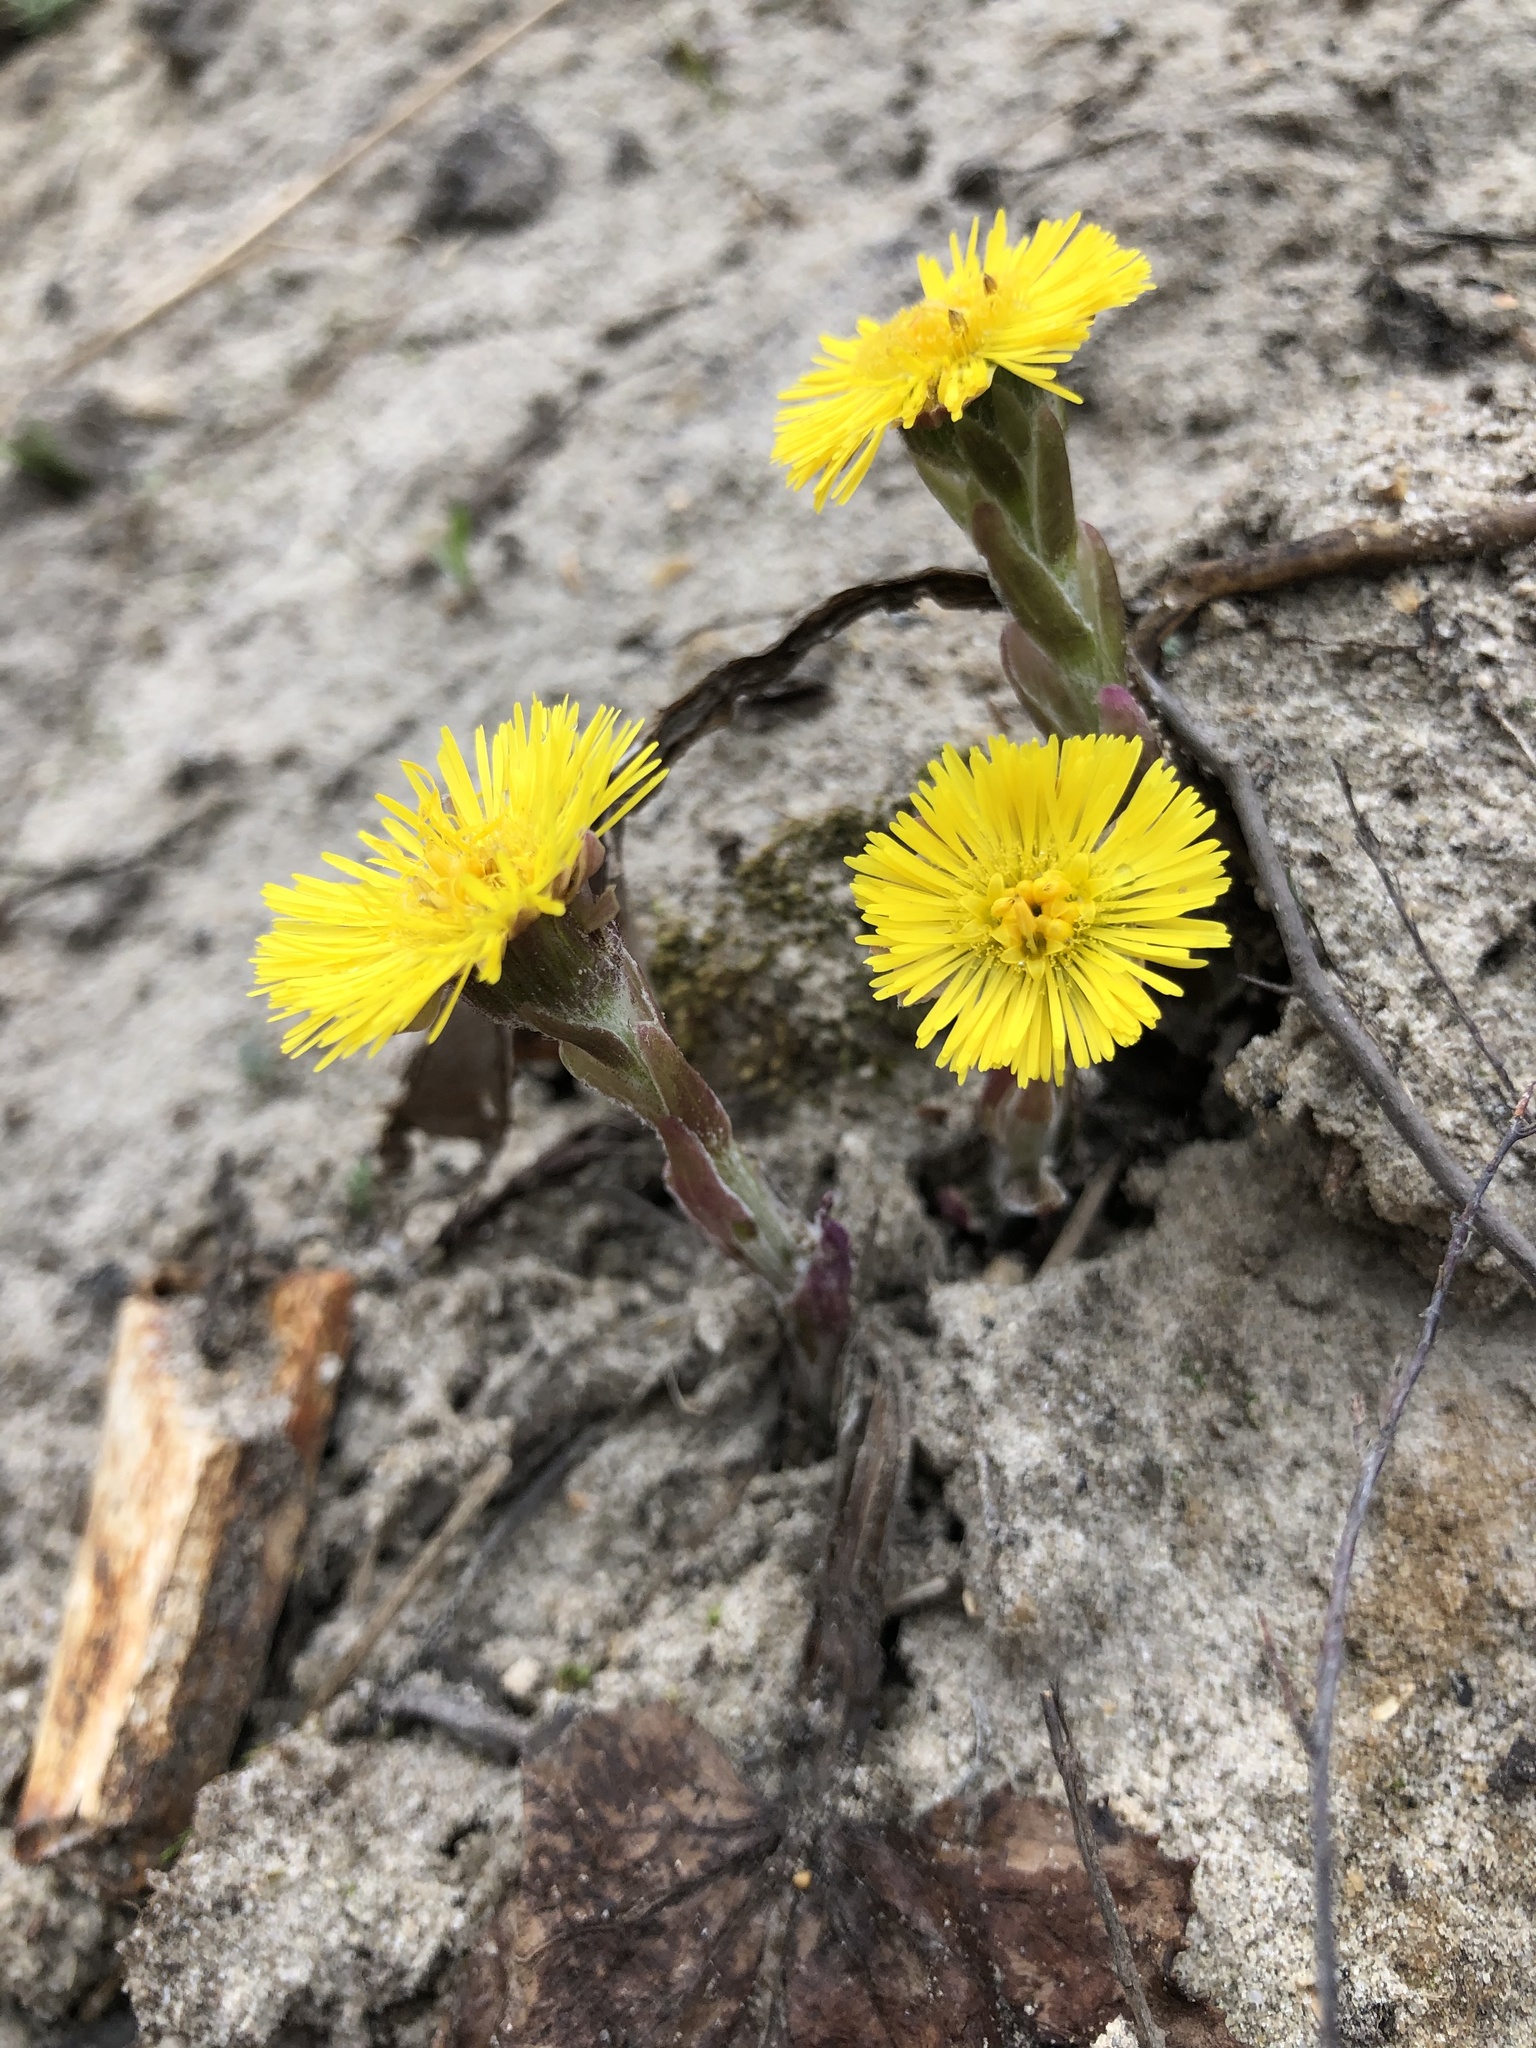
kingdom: Plantae
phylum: Tracheophyta
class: Magnoliopsida
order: Asterales
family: Asteraceae
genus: Tussilago
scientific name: Tussilago farfara
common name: Coltsfoot
